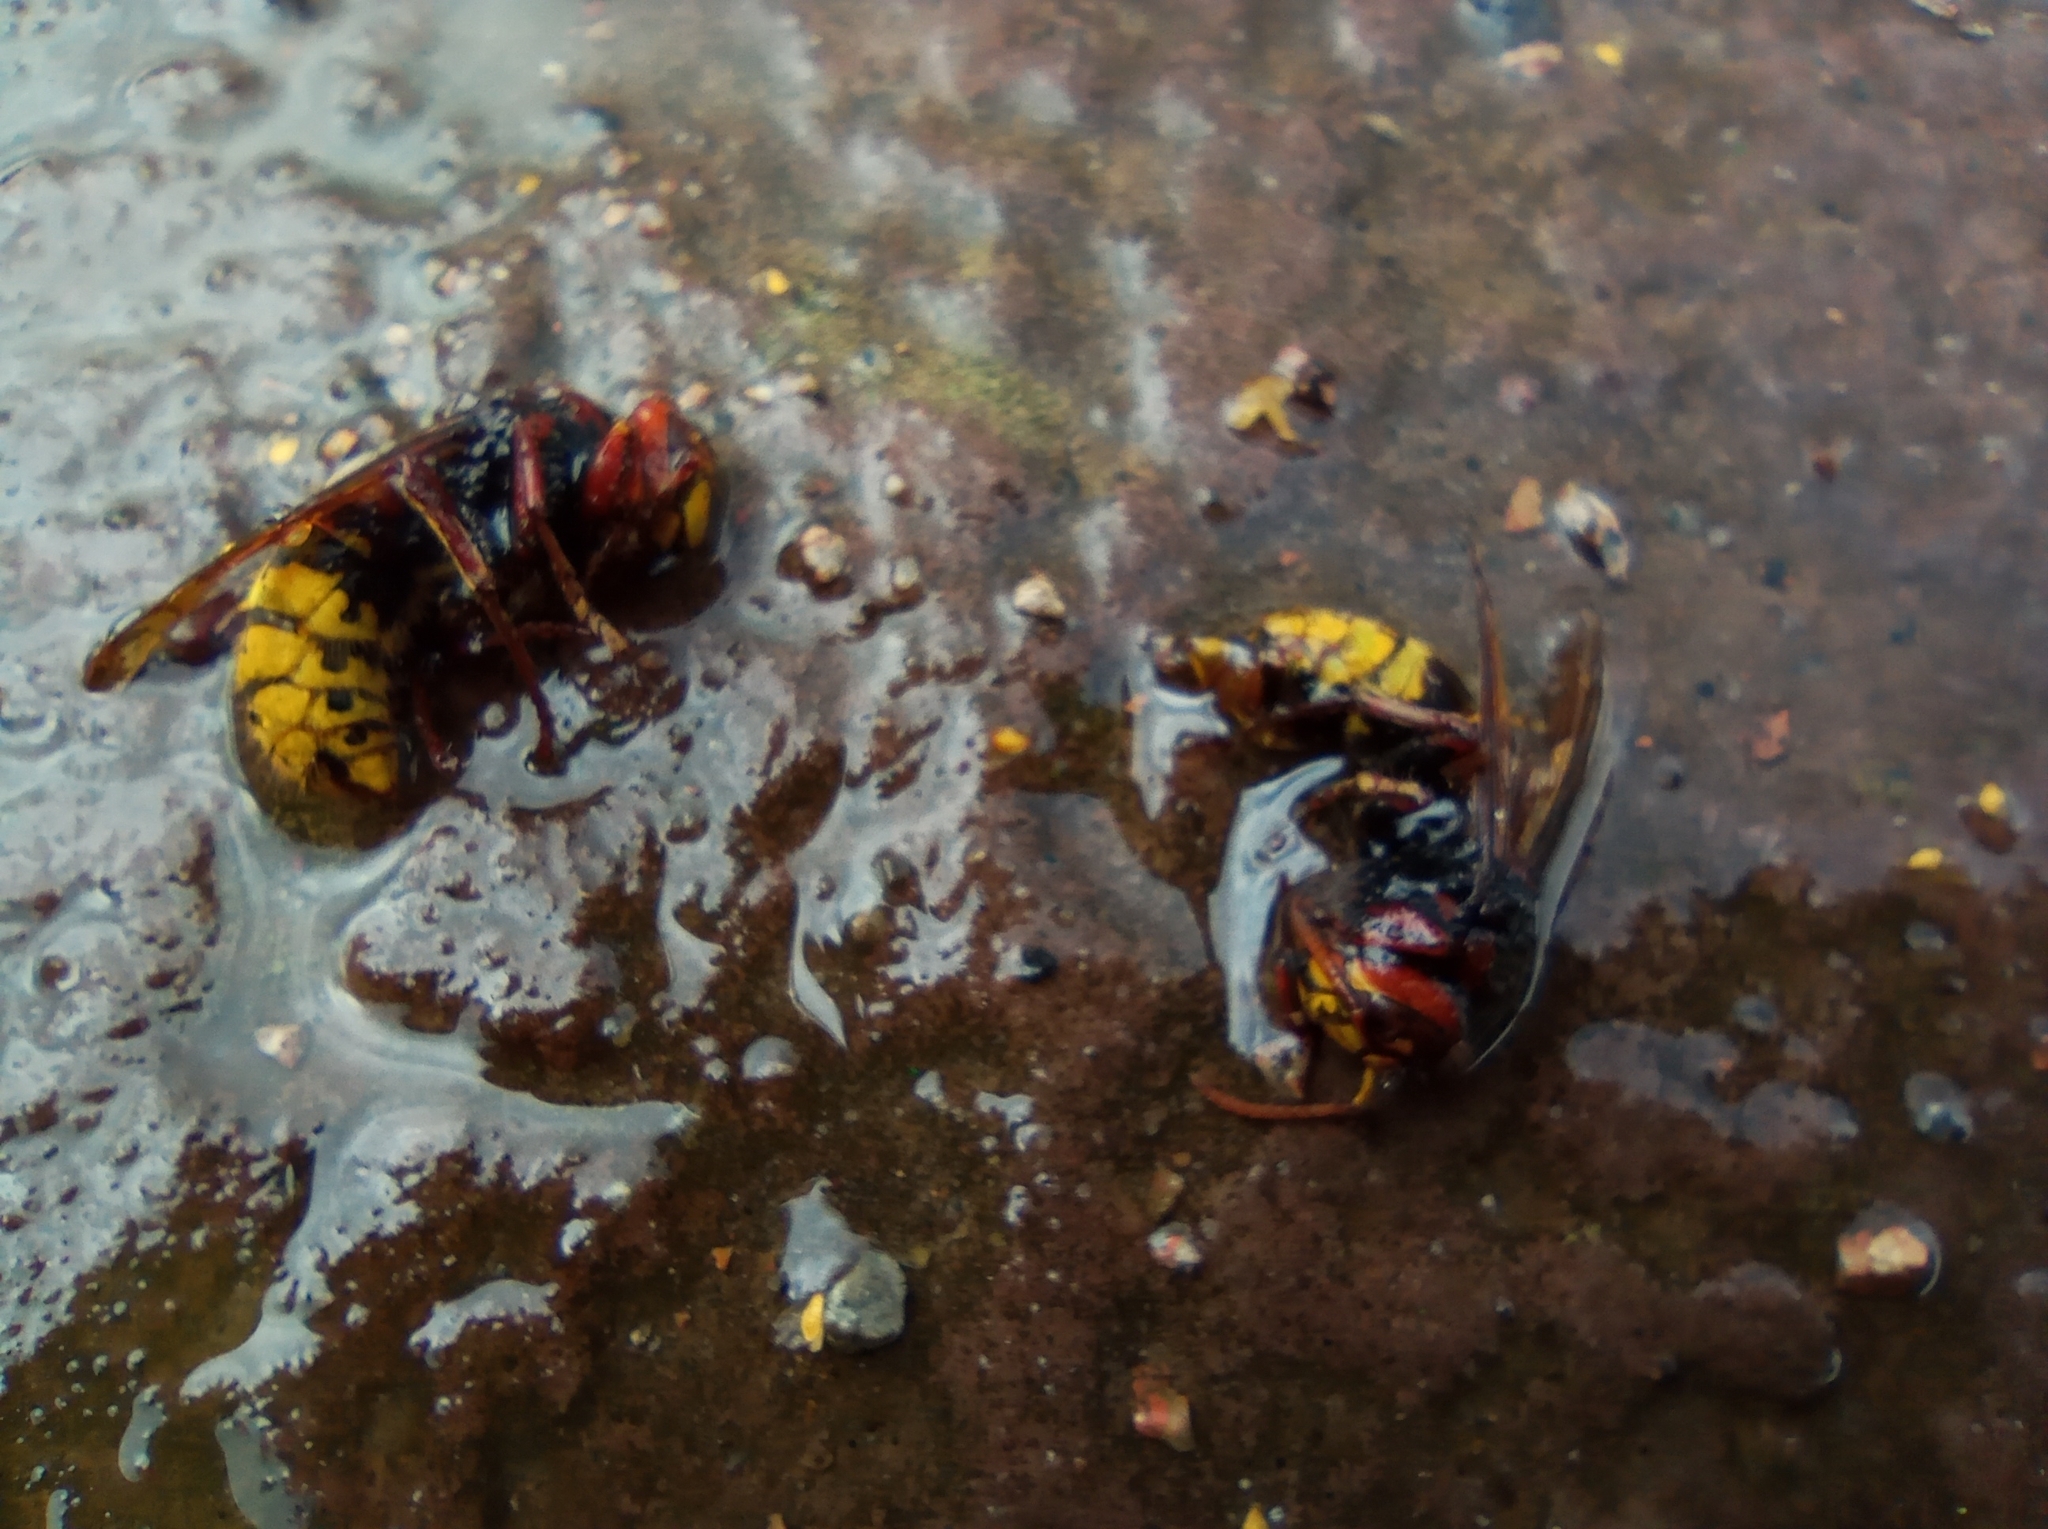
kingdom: Animalia
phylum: Arthropoda
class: Insecta
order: Hymenoptera
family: Vespidae
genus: Vespa
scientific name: Vespa crabro
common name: Hornet
